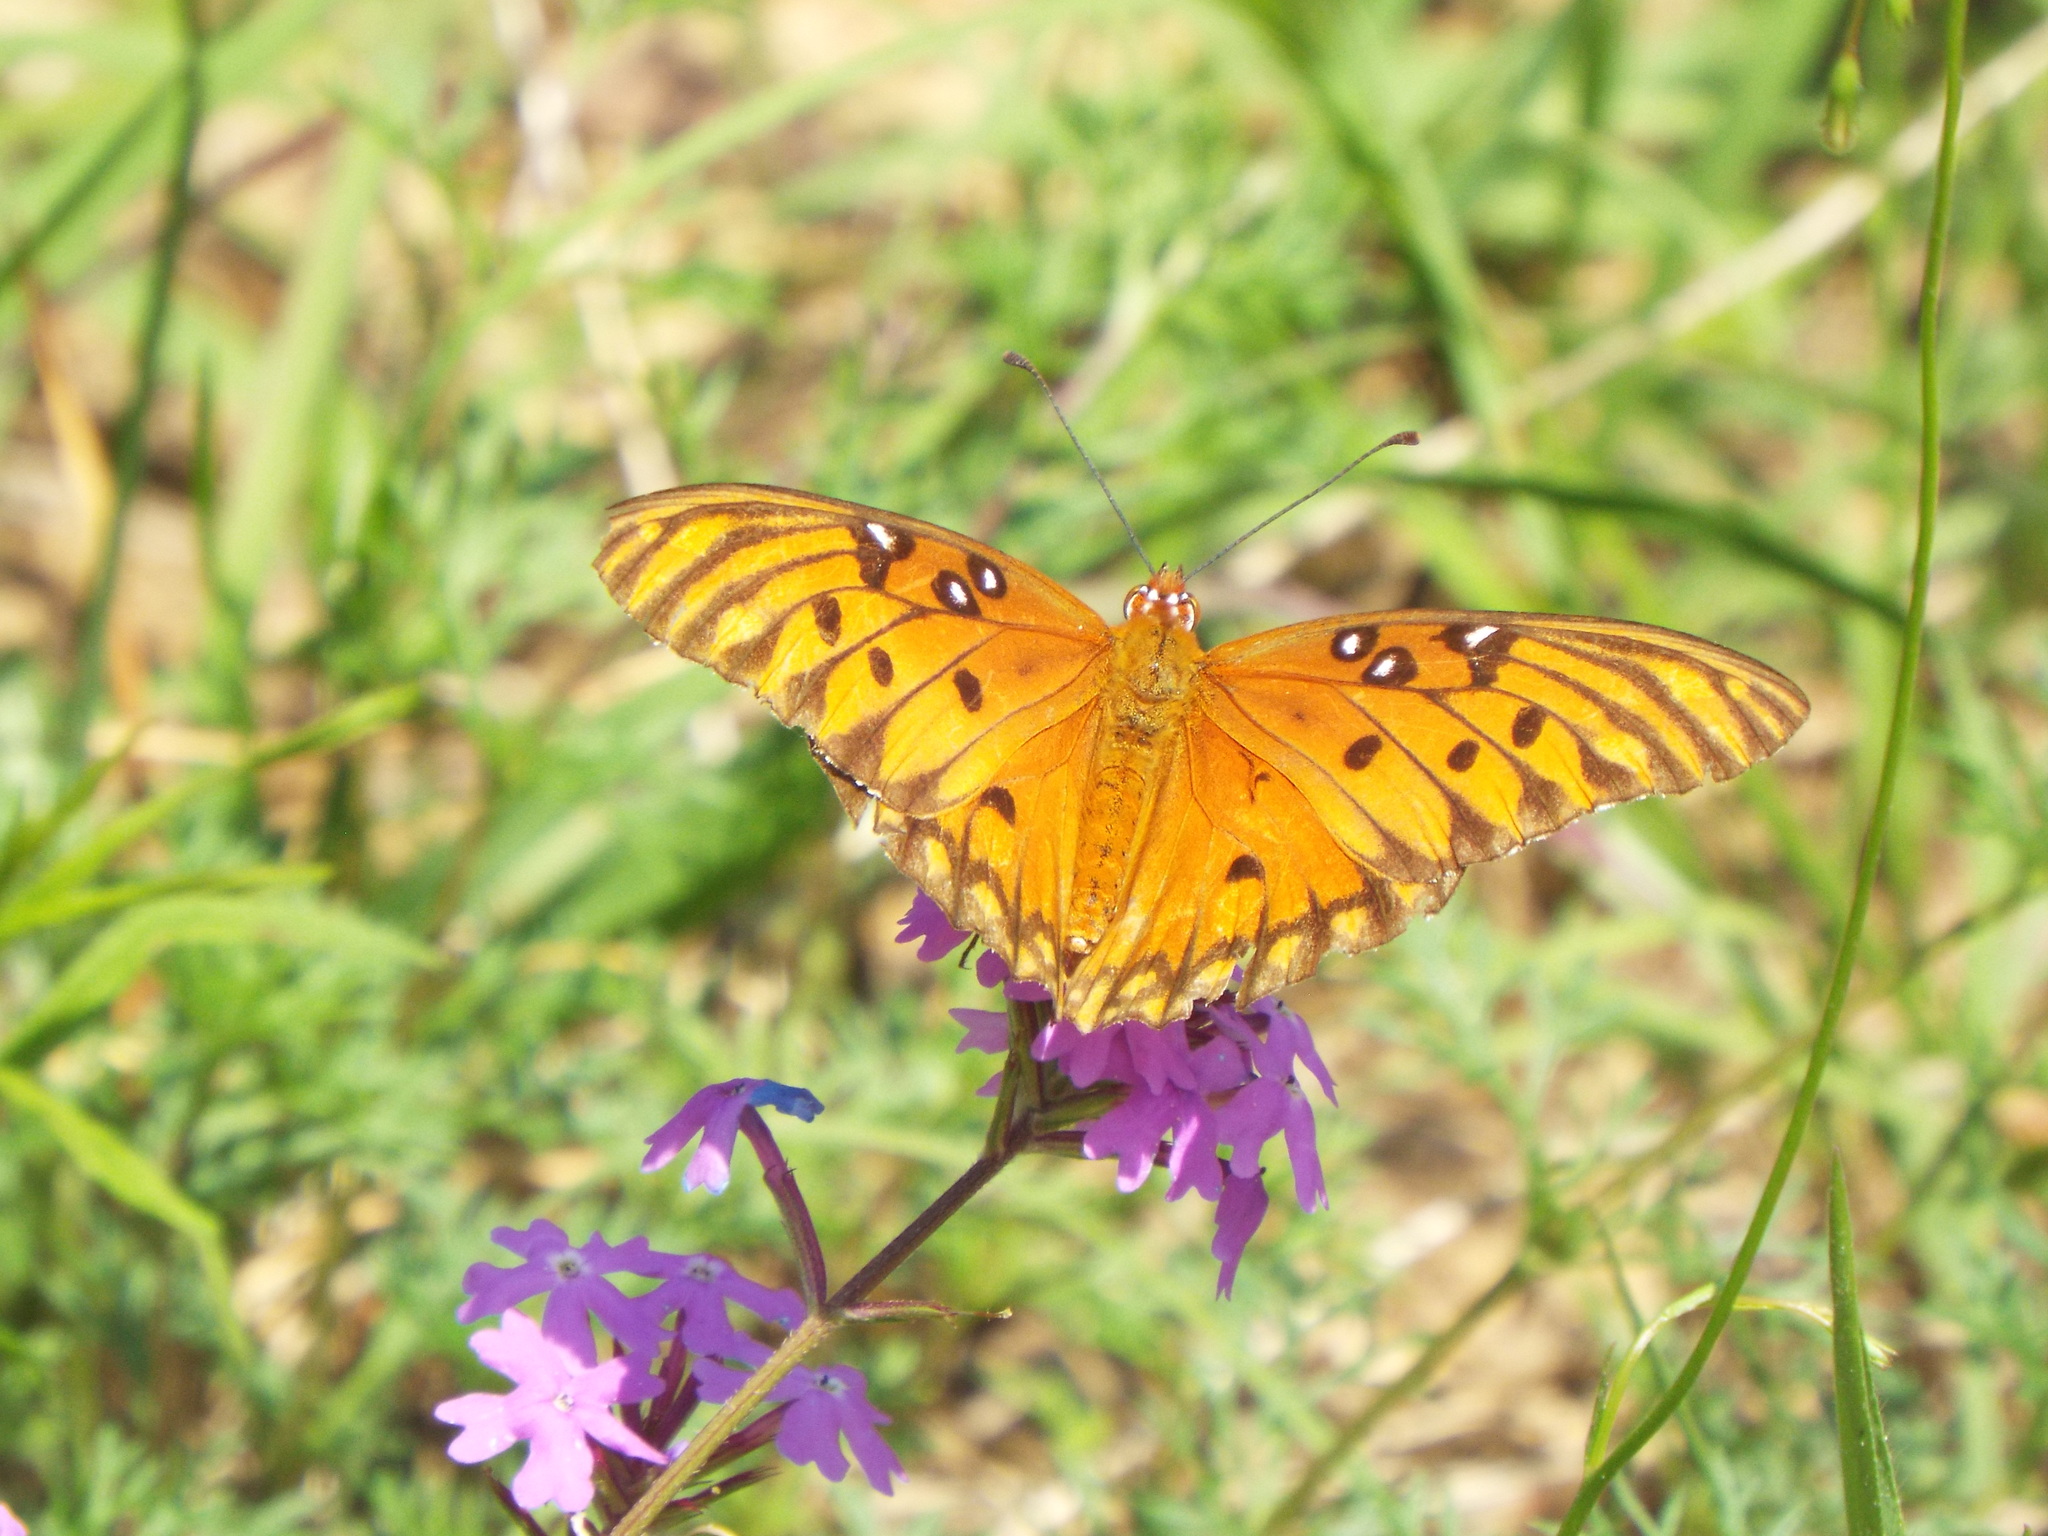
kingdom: Animalia
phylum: Arthropoda
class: Insecta
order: Lepidoptera
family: Nymphalidae
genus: Dione
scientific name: Dione vanillae
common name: Gulf fritillary
